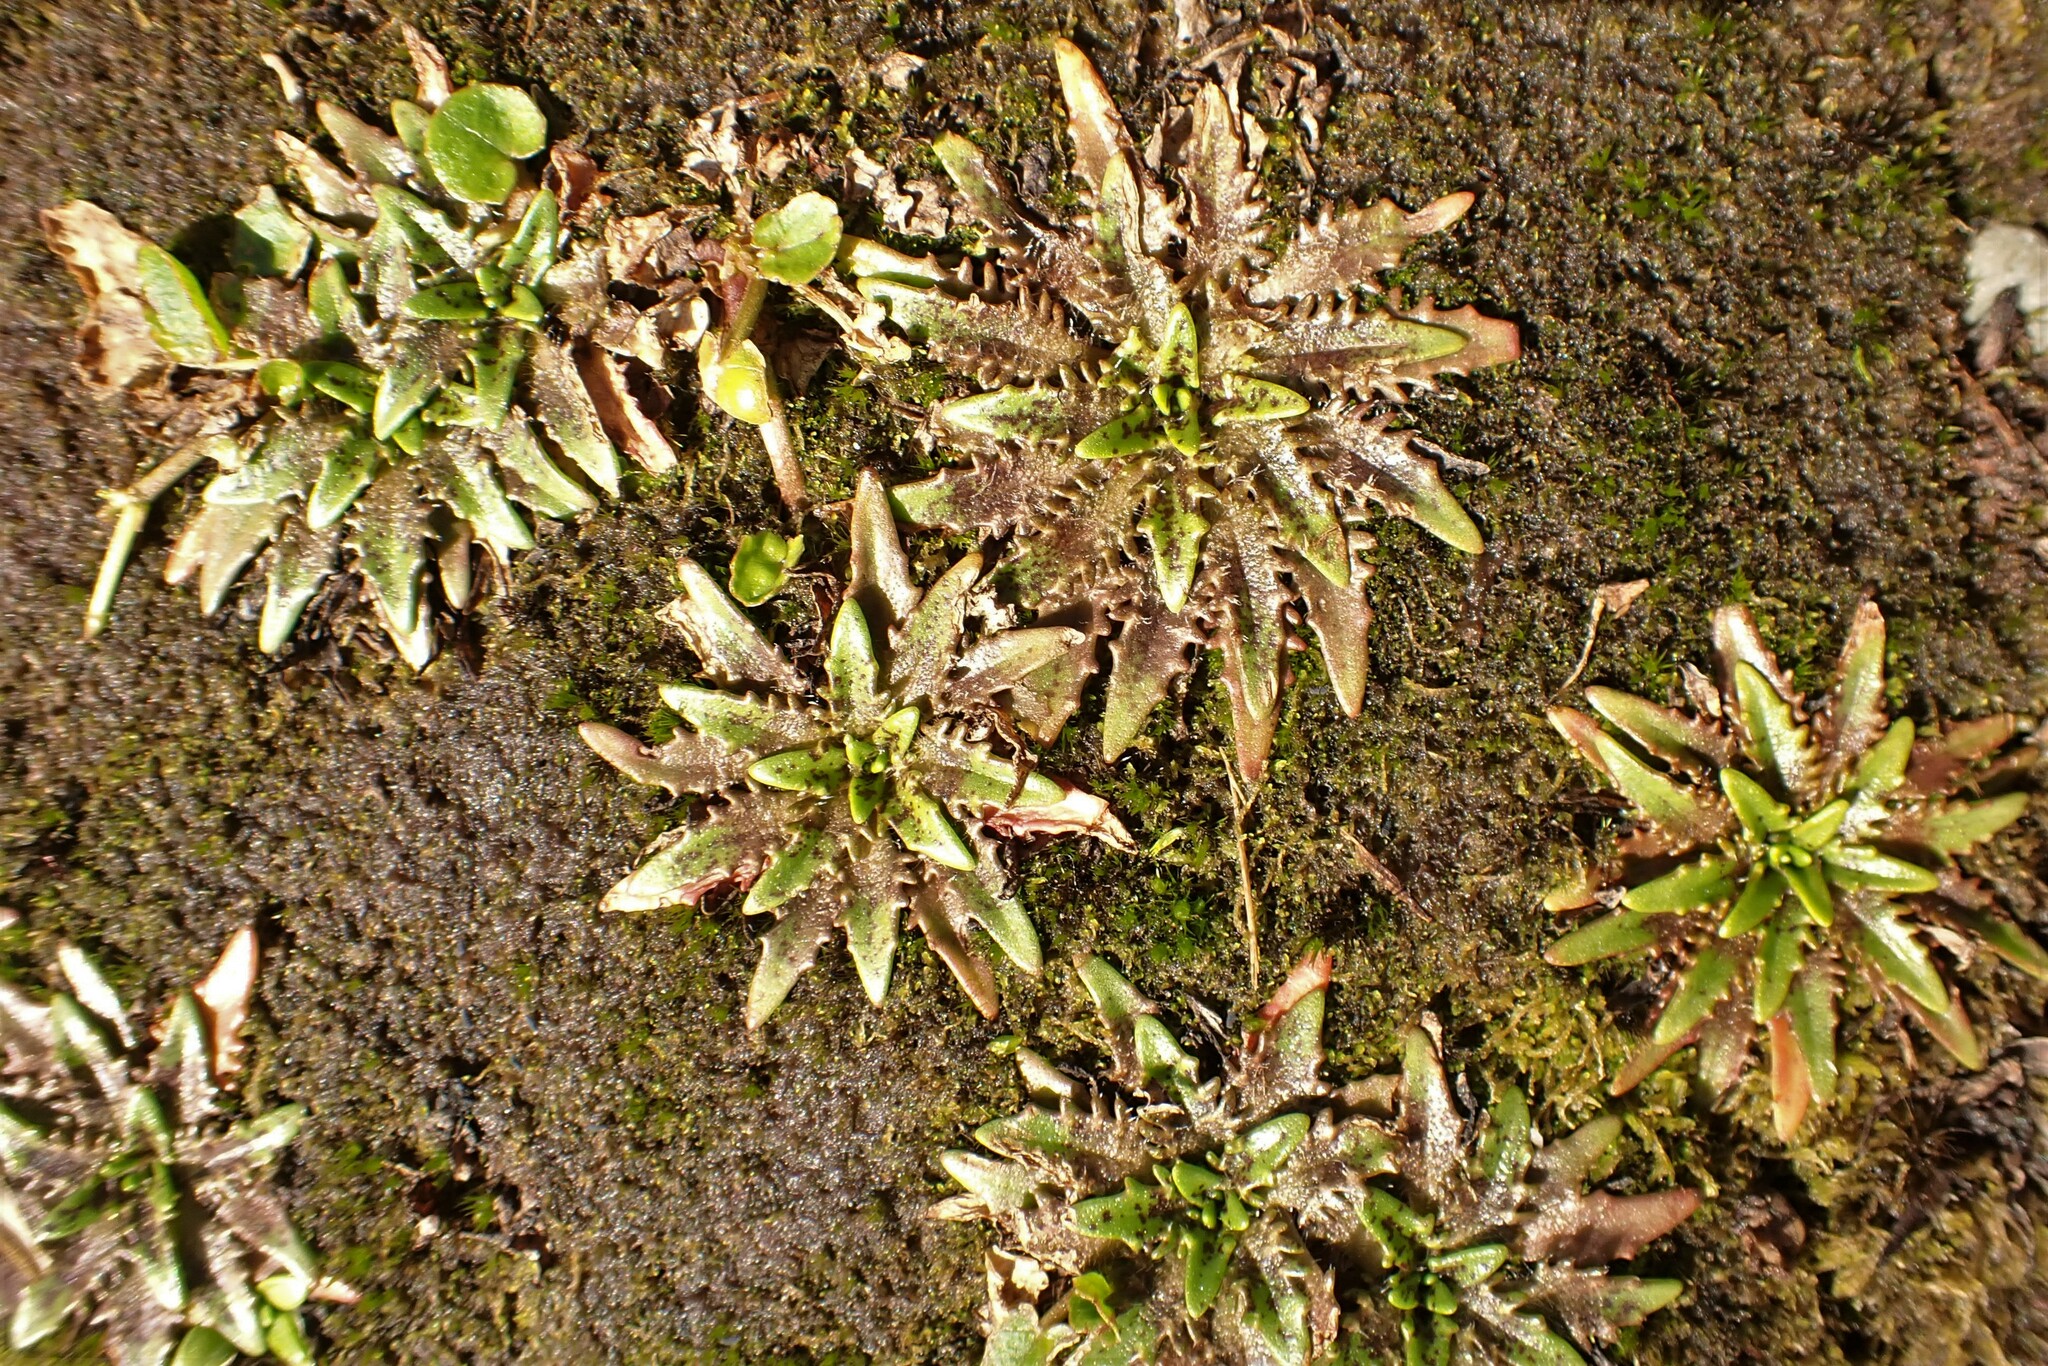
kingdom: Plantae
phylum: Tracheophyta
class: Magnoliopsida
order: Lamiales
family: Plantaginaceae
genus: Plantago
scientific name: Plantago triandra
